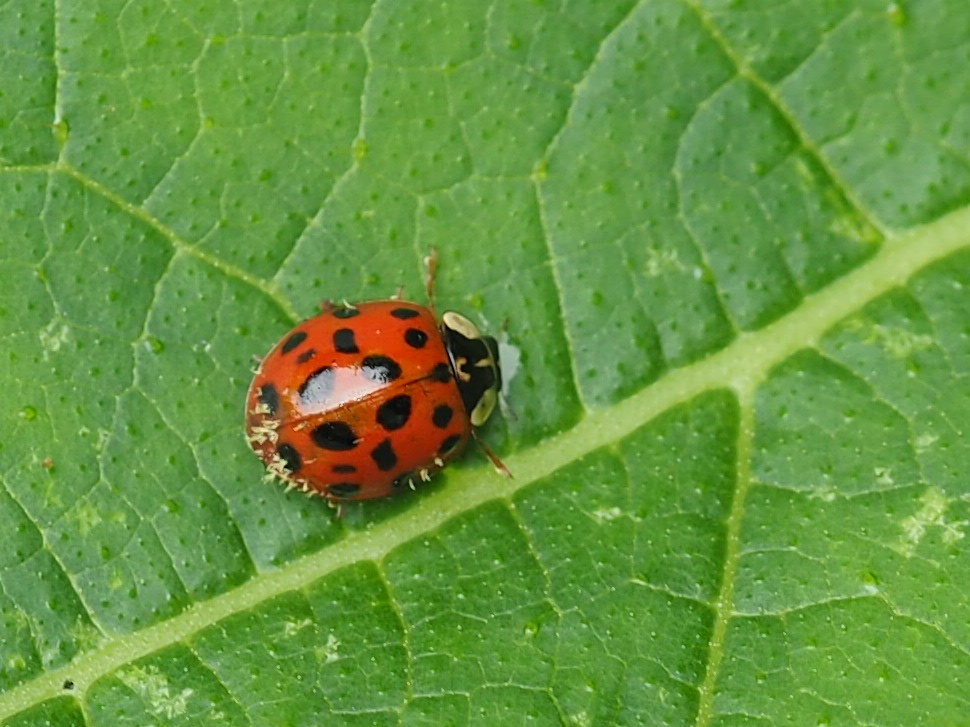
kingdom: Animalia
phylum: Arthropoda
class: Insecta
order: Coleoptera
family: Coccinellidae
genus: Harmonia
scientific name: Harmonia axyridis
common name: Harlequin ladybird
